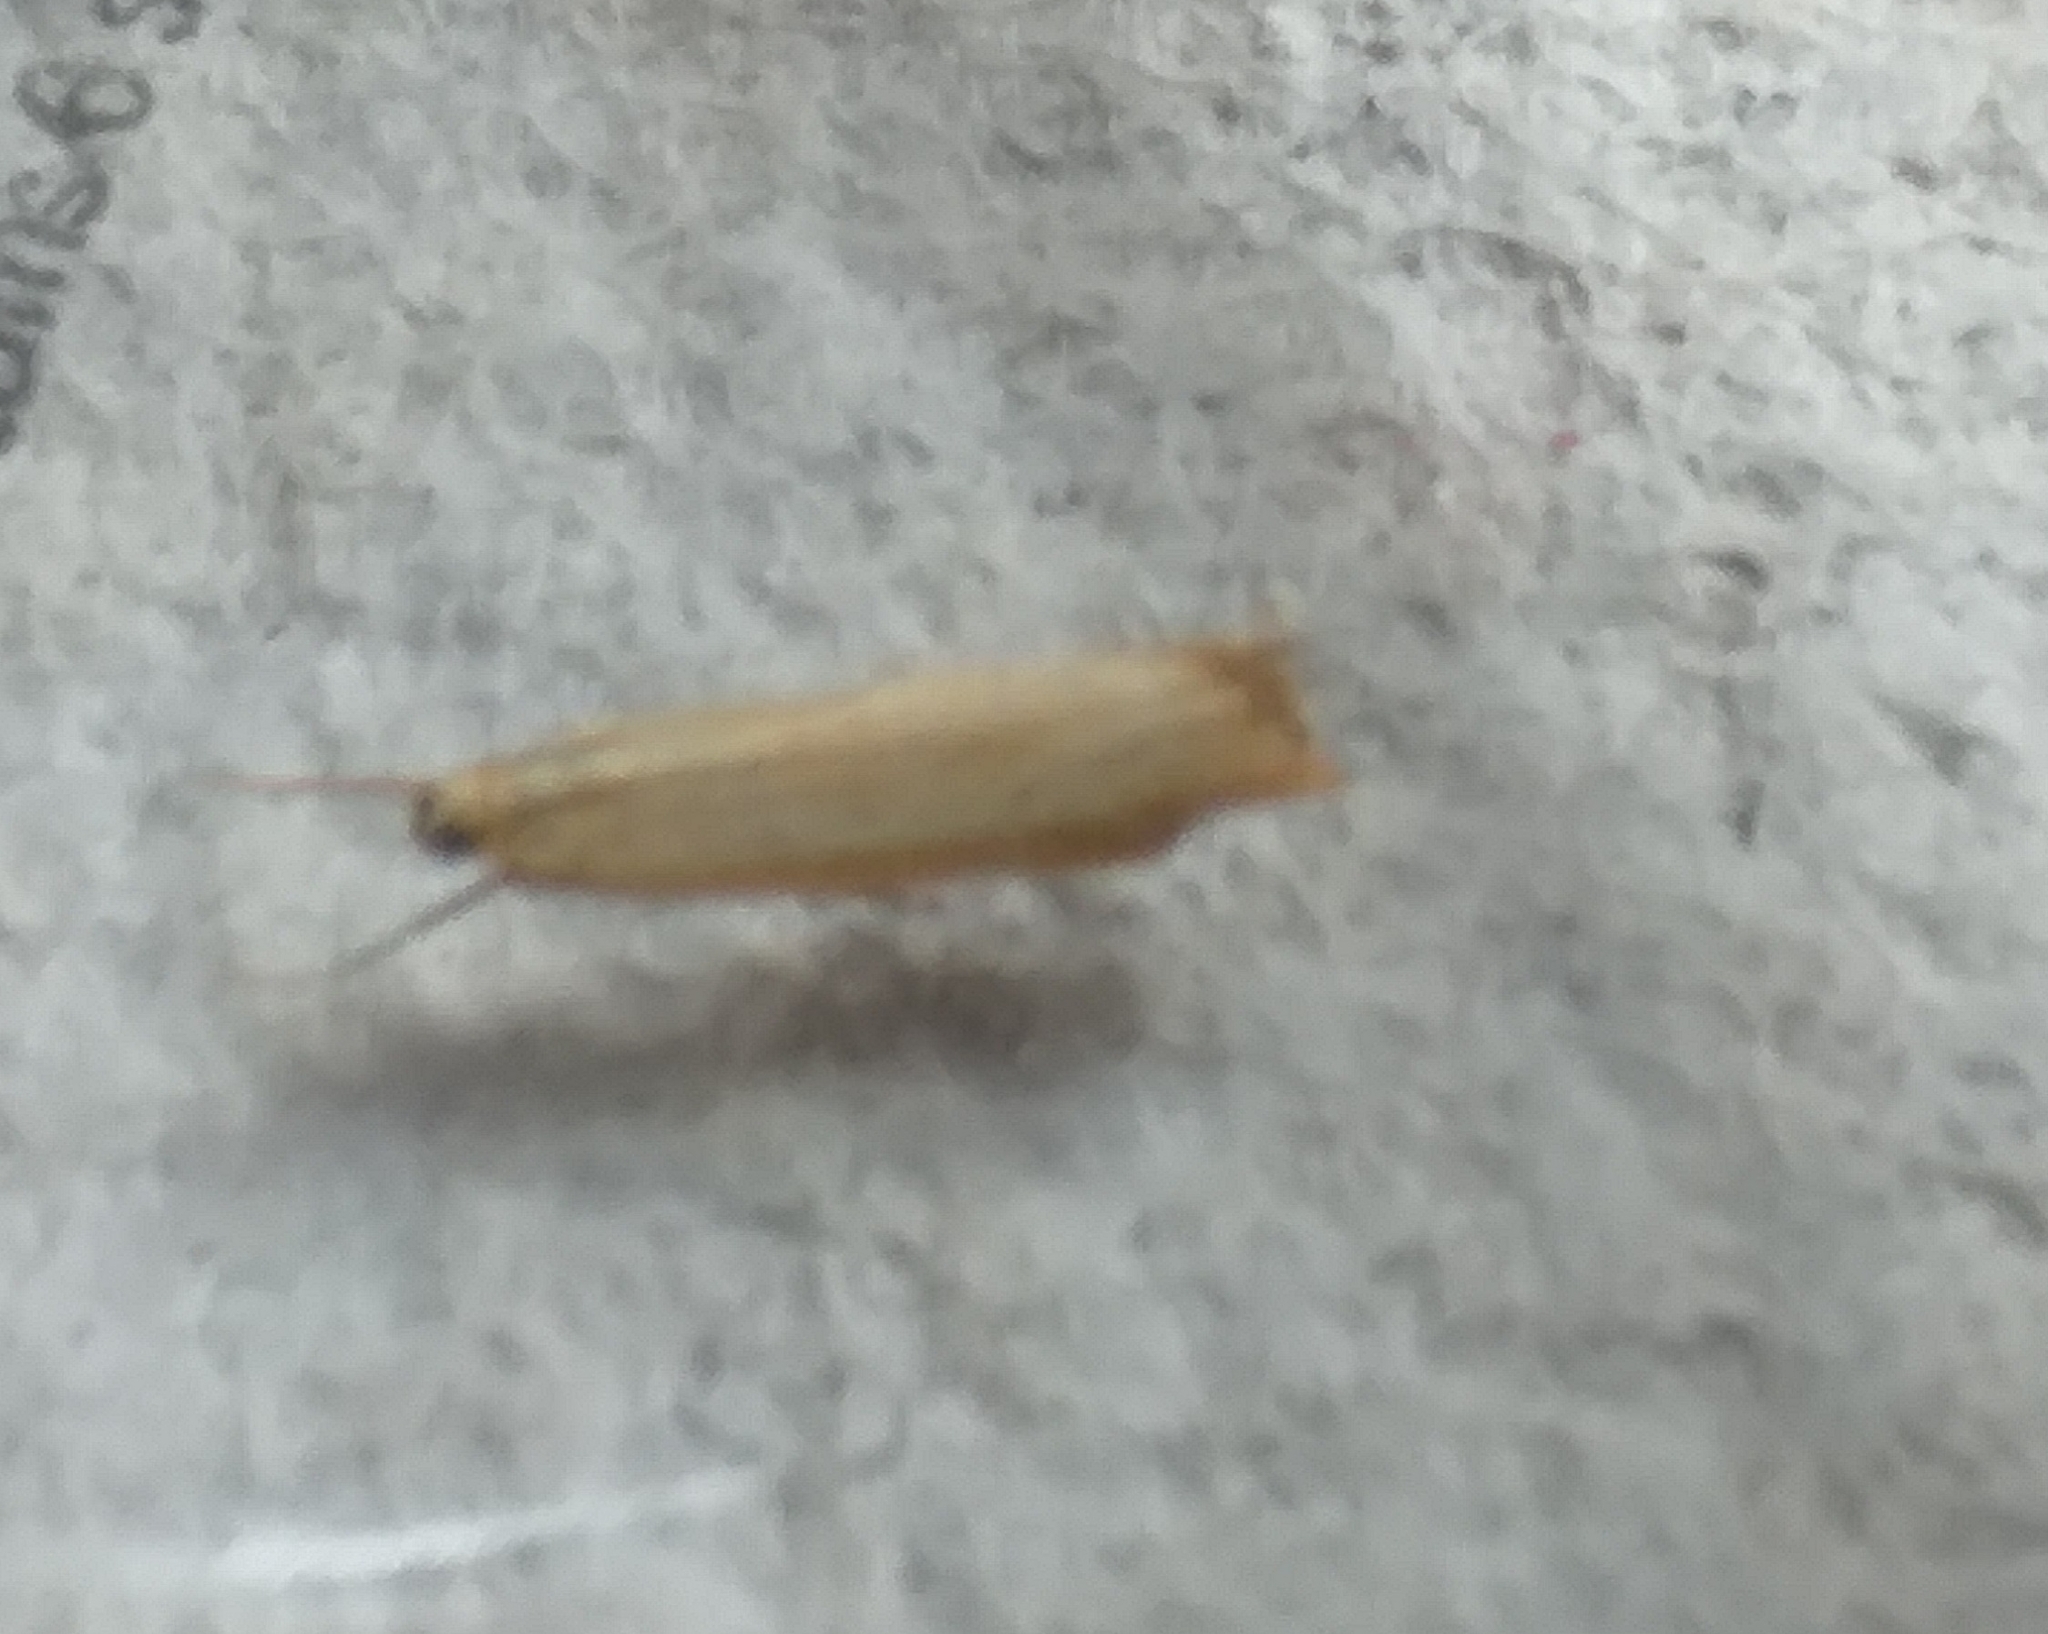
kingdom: Animalia
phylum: Arthropoda
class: Insecta
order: Lepidoptera
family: Crambidae
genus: Agriphila
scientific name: Agriphila straminella
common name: Straw grass-veneer
